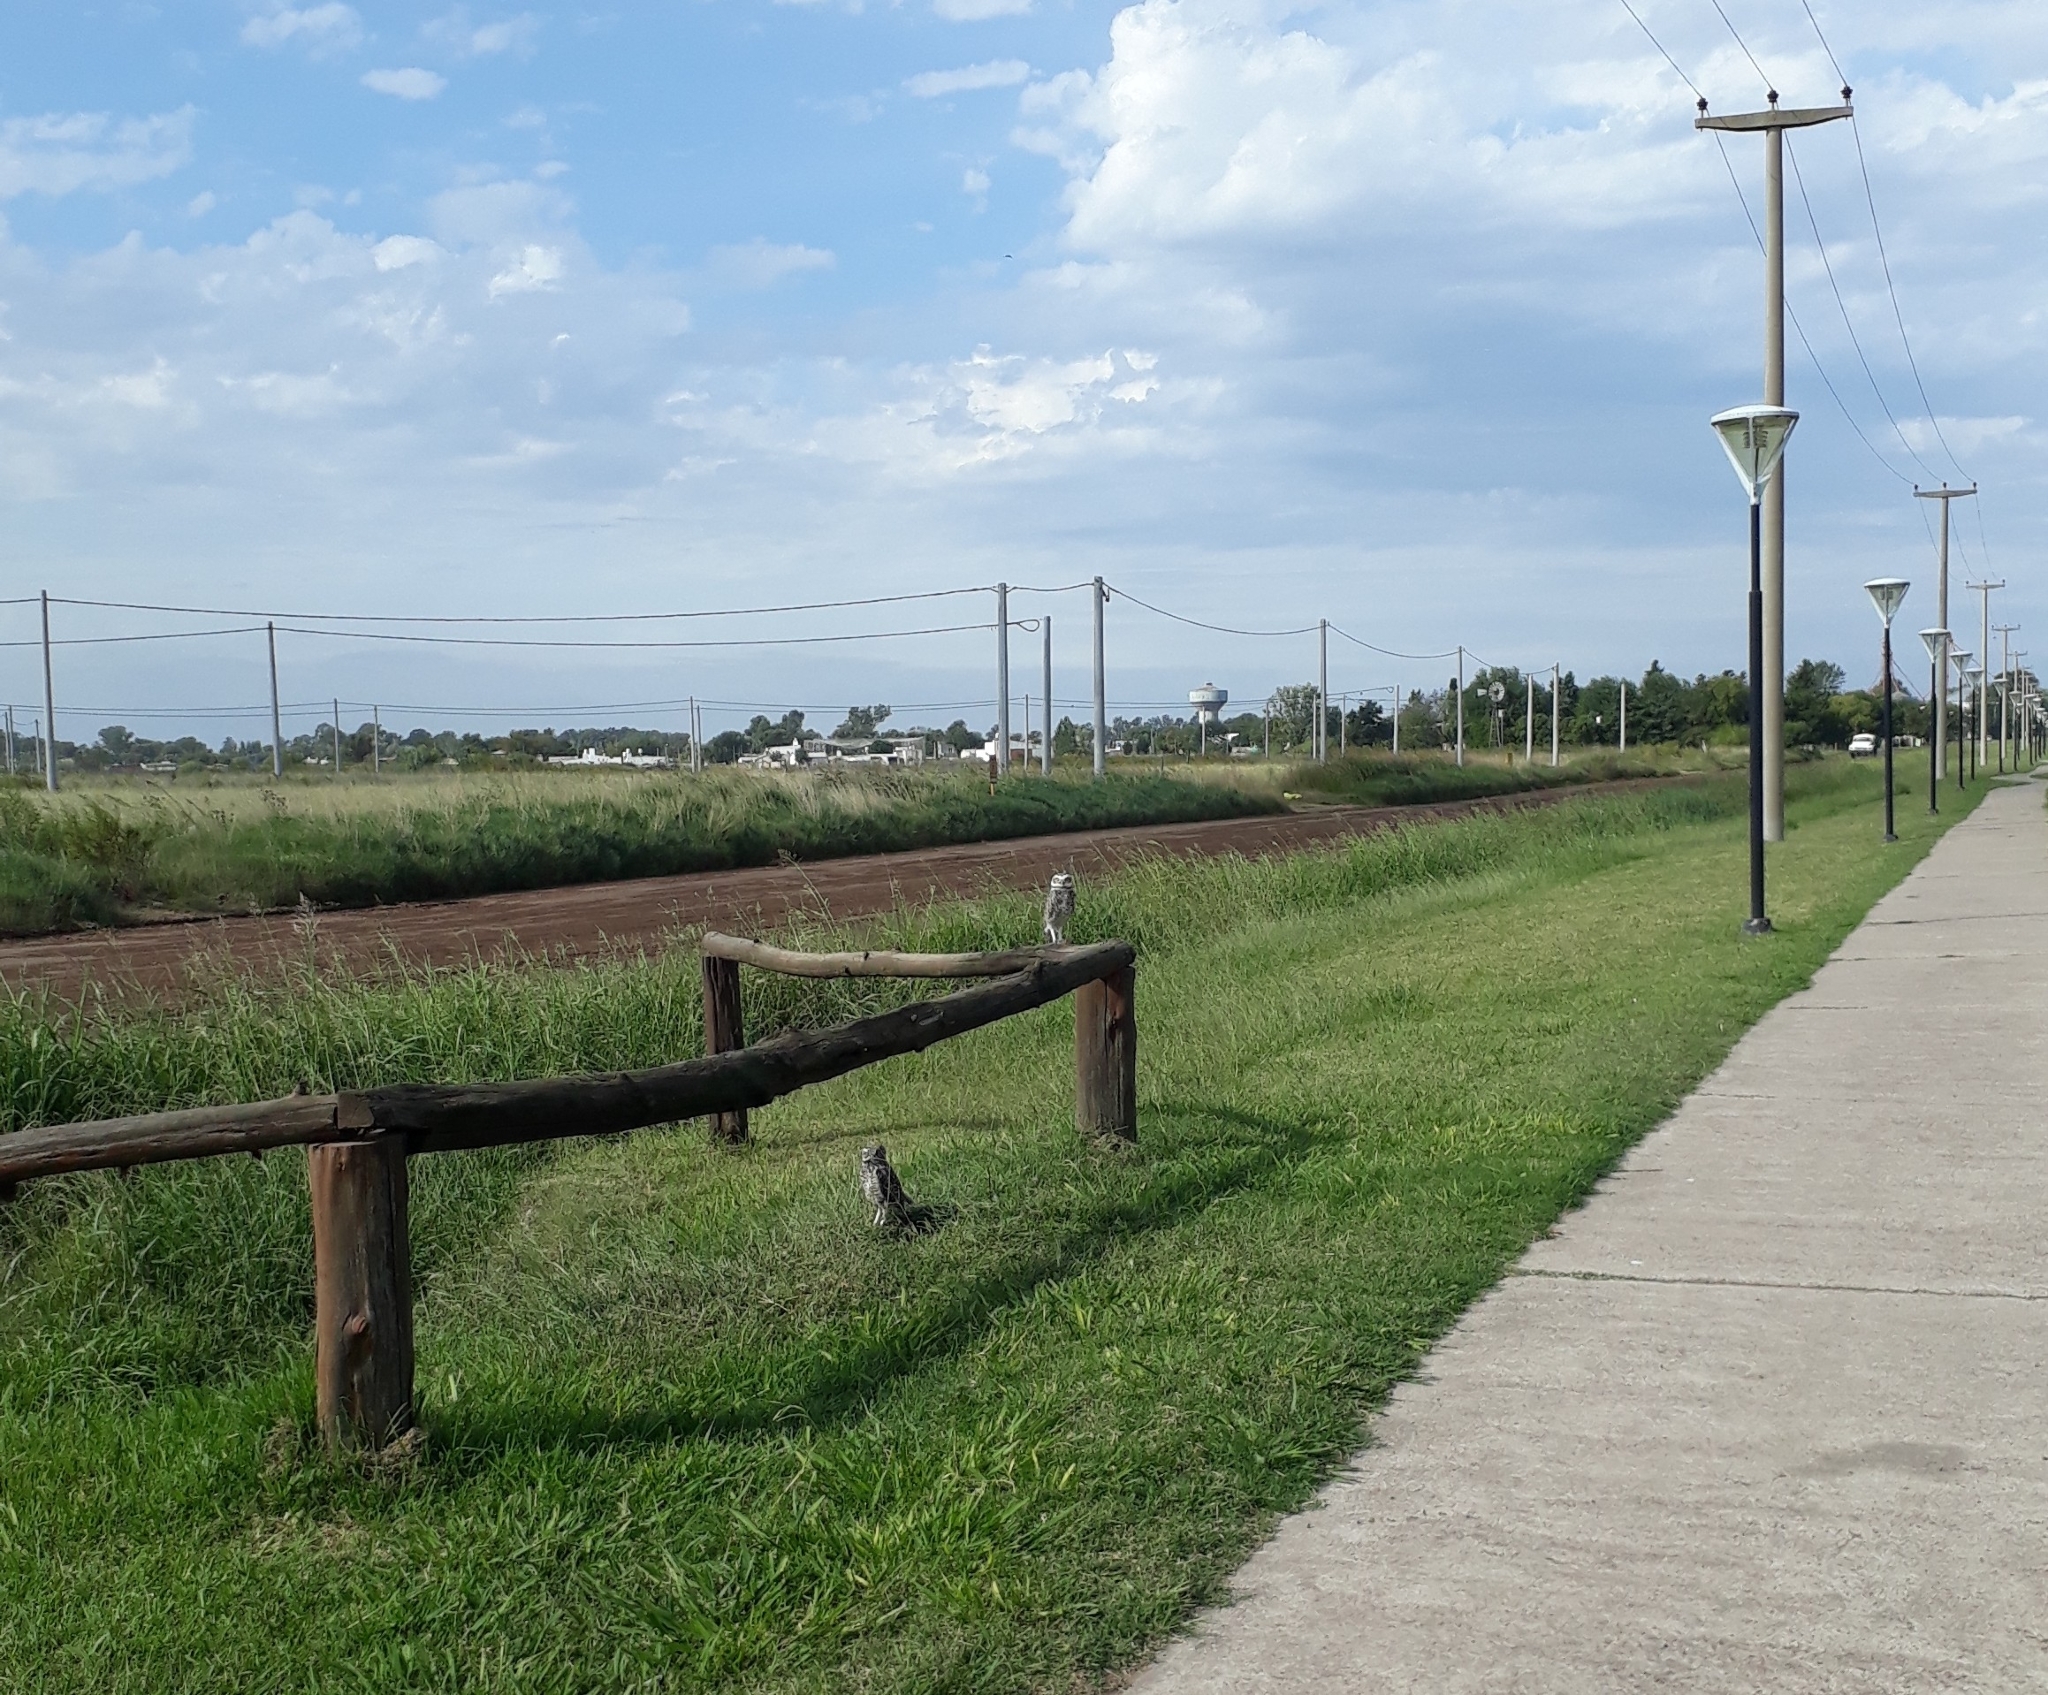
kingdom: Animalia
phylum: Chordata
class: Aves
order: Strigiformes
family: Strigidae
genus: Athene
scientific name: Athene cunicularia
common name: Burrowing owl
